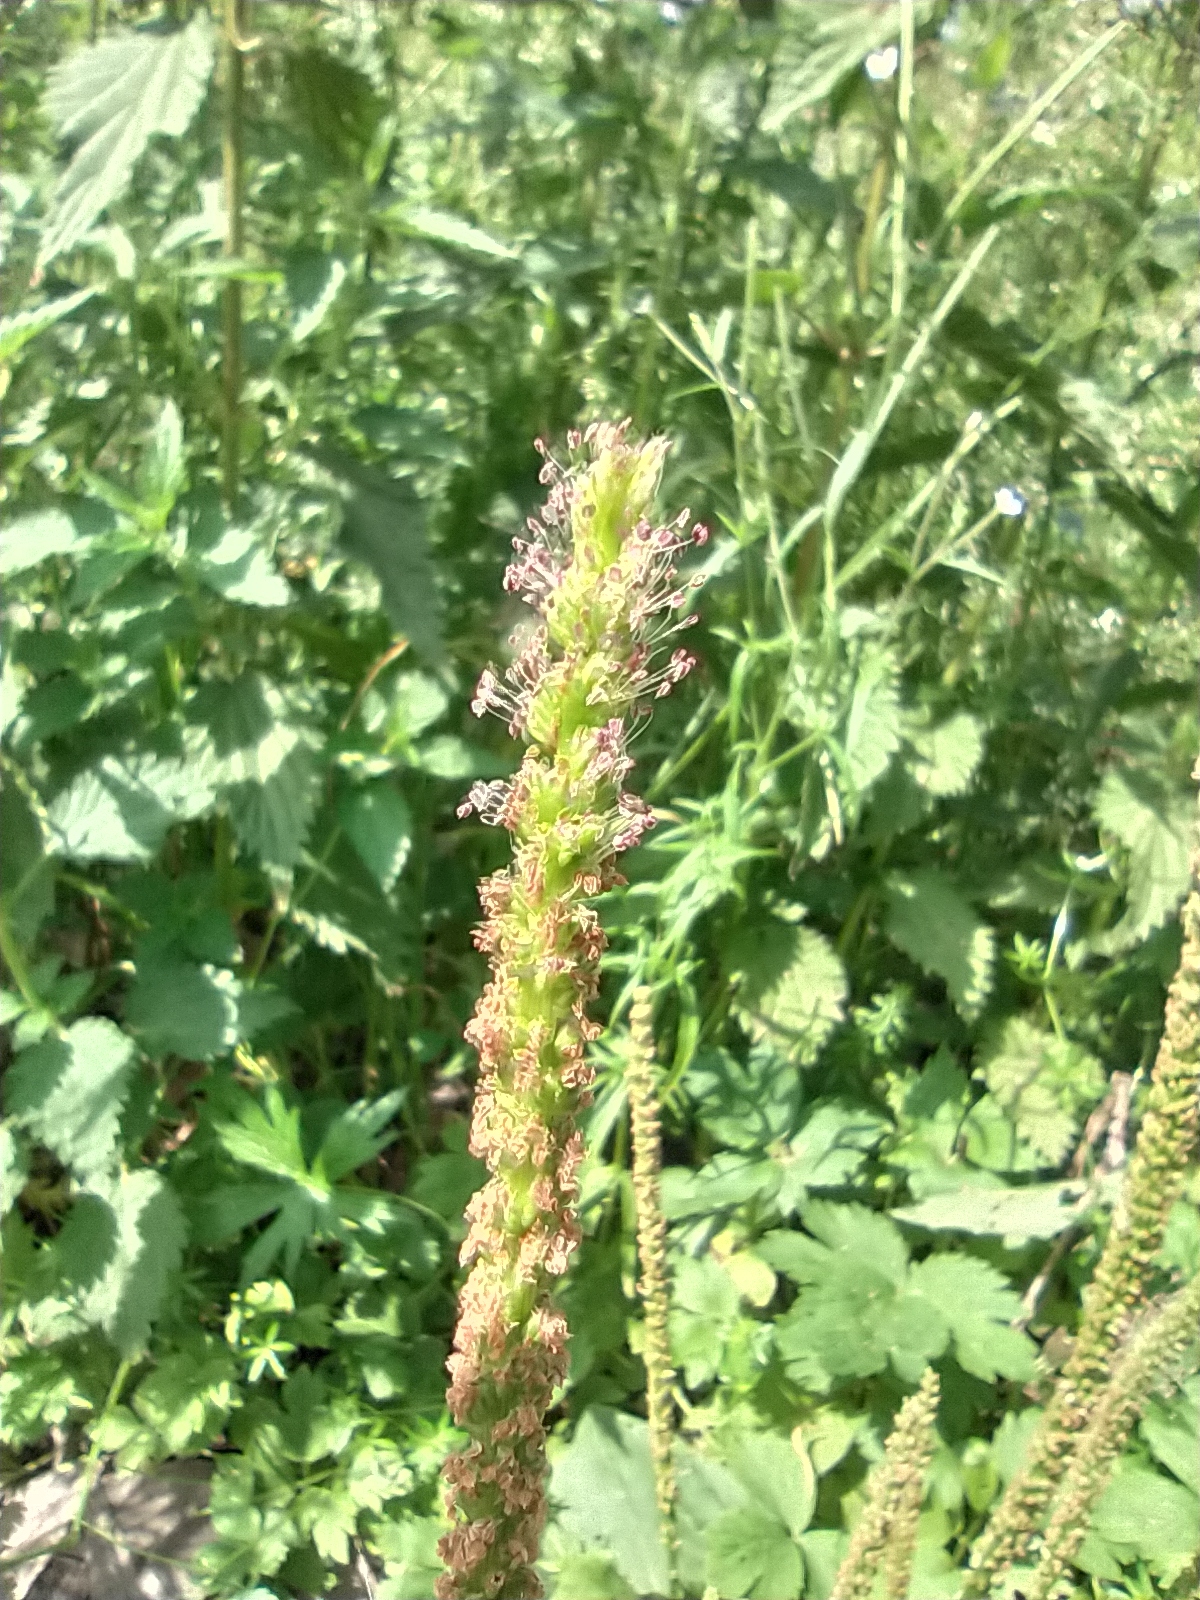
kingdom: Plantae
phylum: Tracheophyta
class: Magnoliopsida
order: Lamiales
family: Plantaginaceae
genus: Plantago
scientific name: Plantago major
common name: Common plantain
